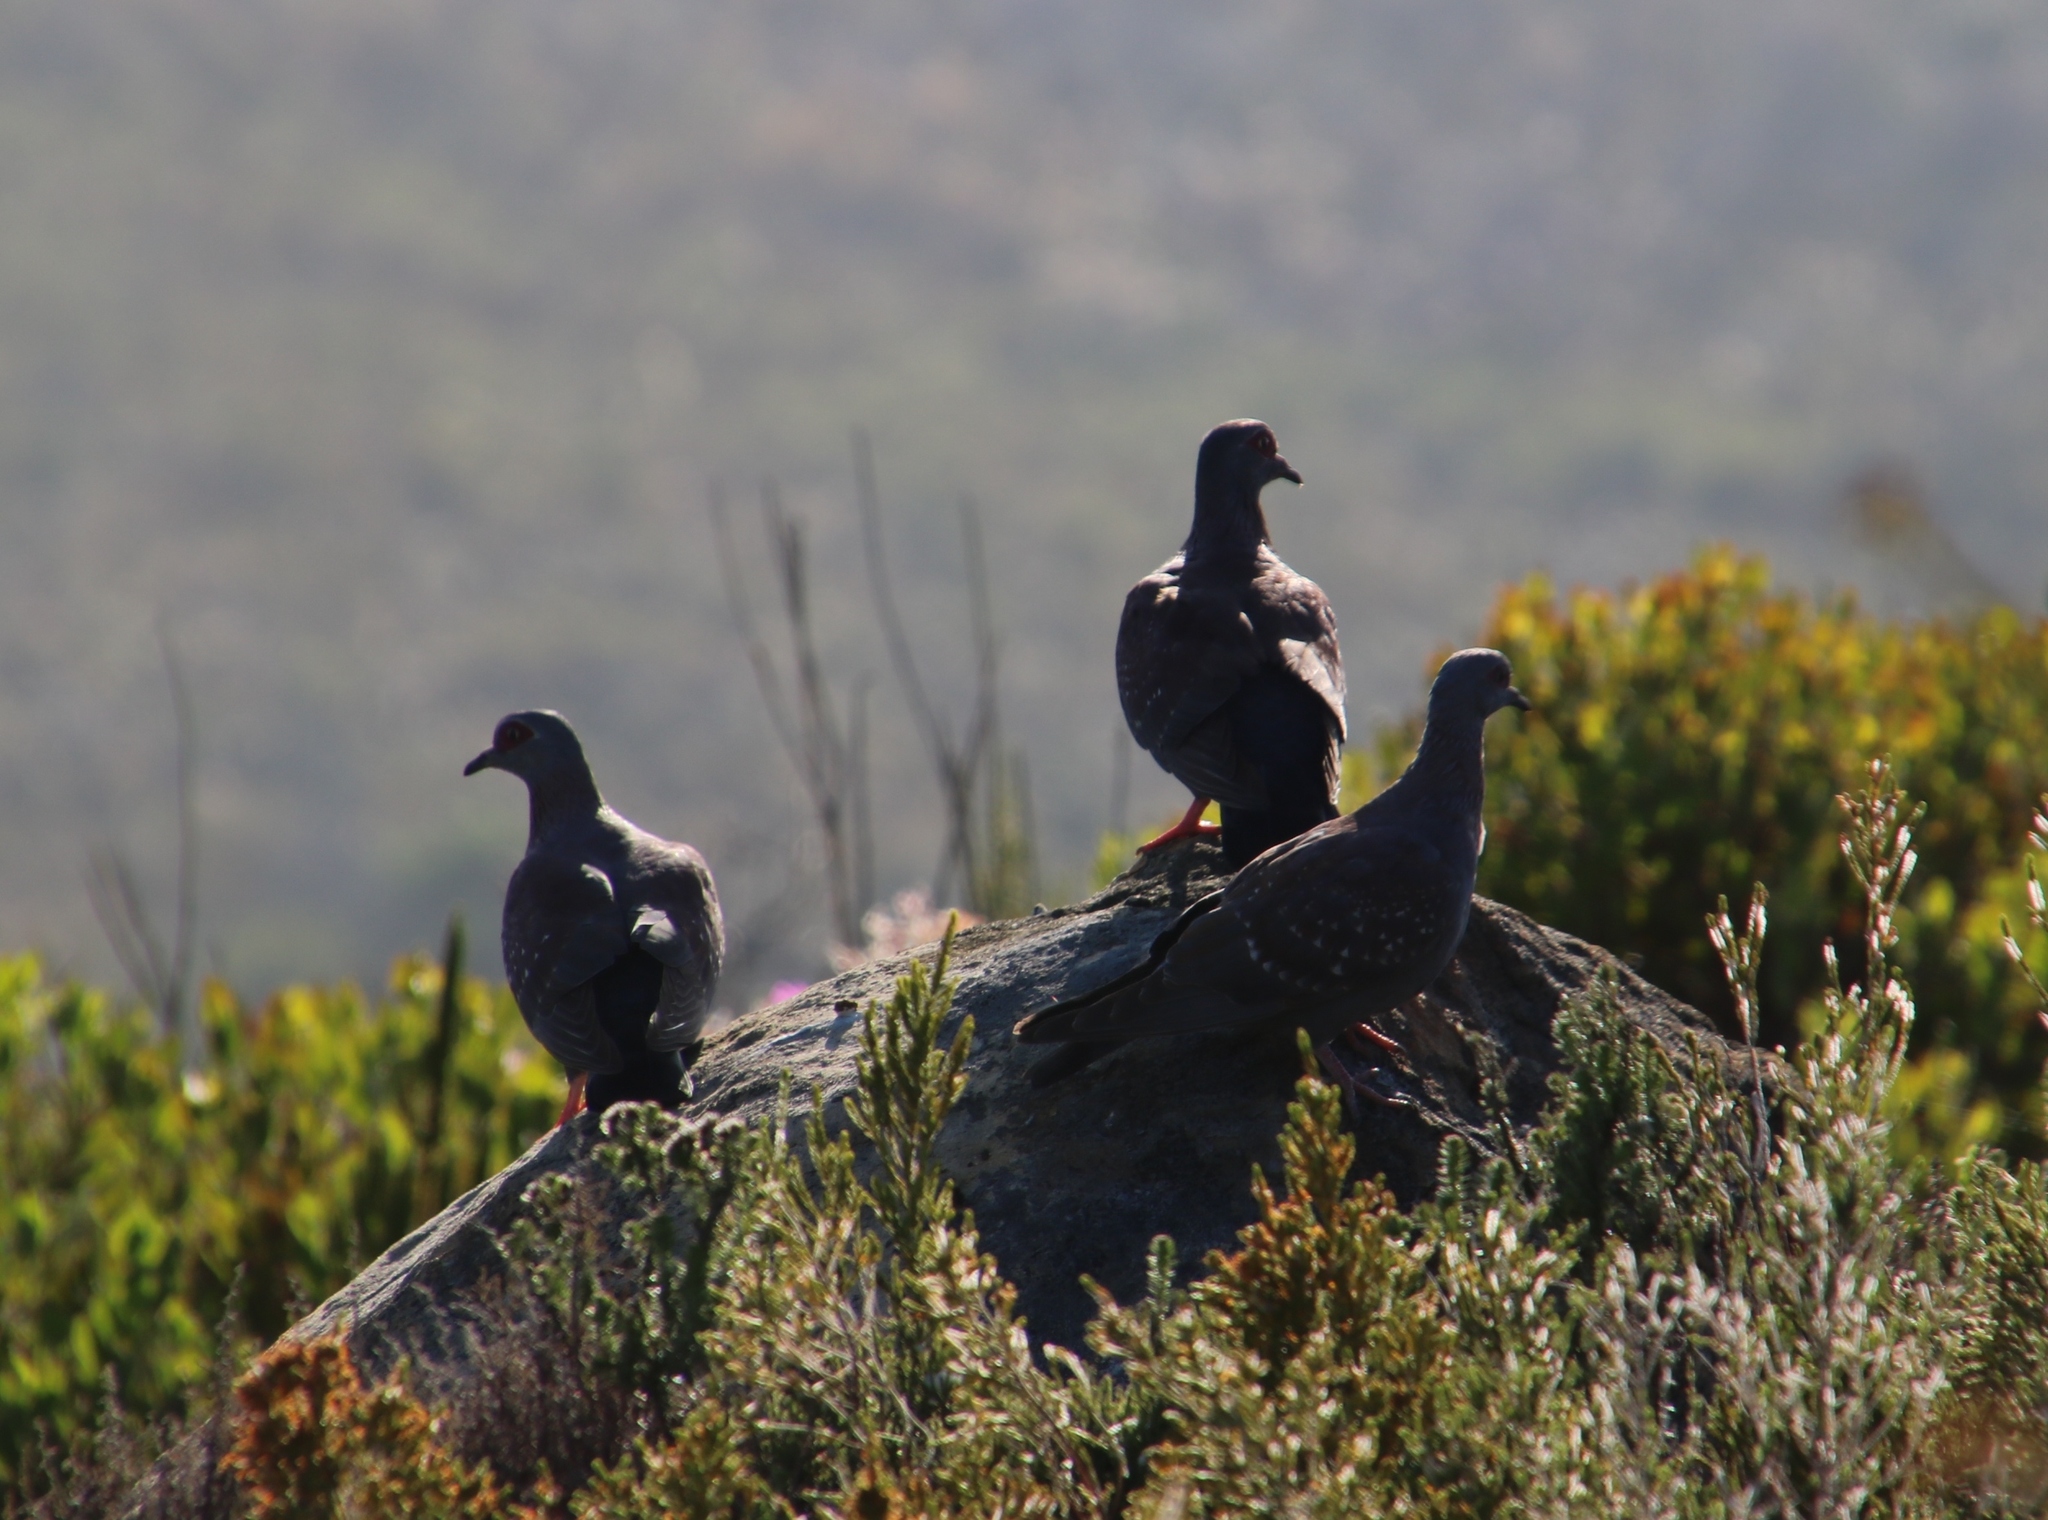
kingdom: Animalia
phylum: Chordata
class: Aves
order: Columbiformes
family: Columbidae
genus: Columba
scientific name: Columba guinea
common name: Speckled pigeon
